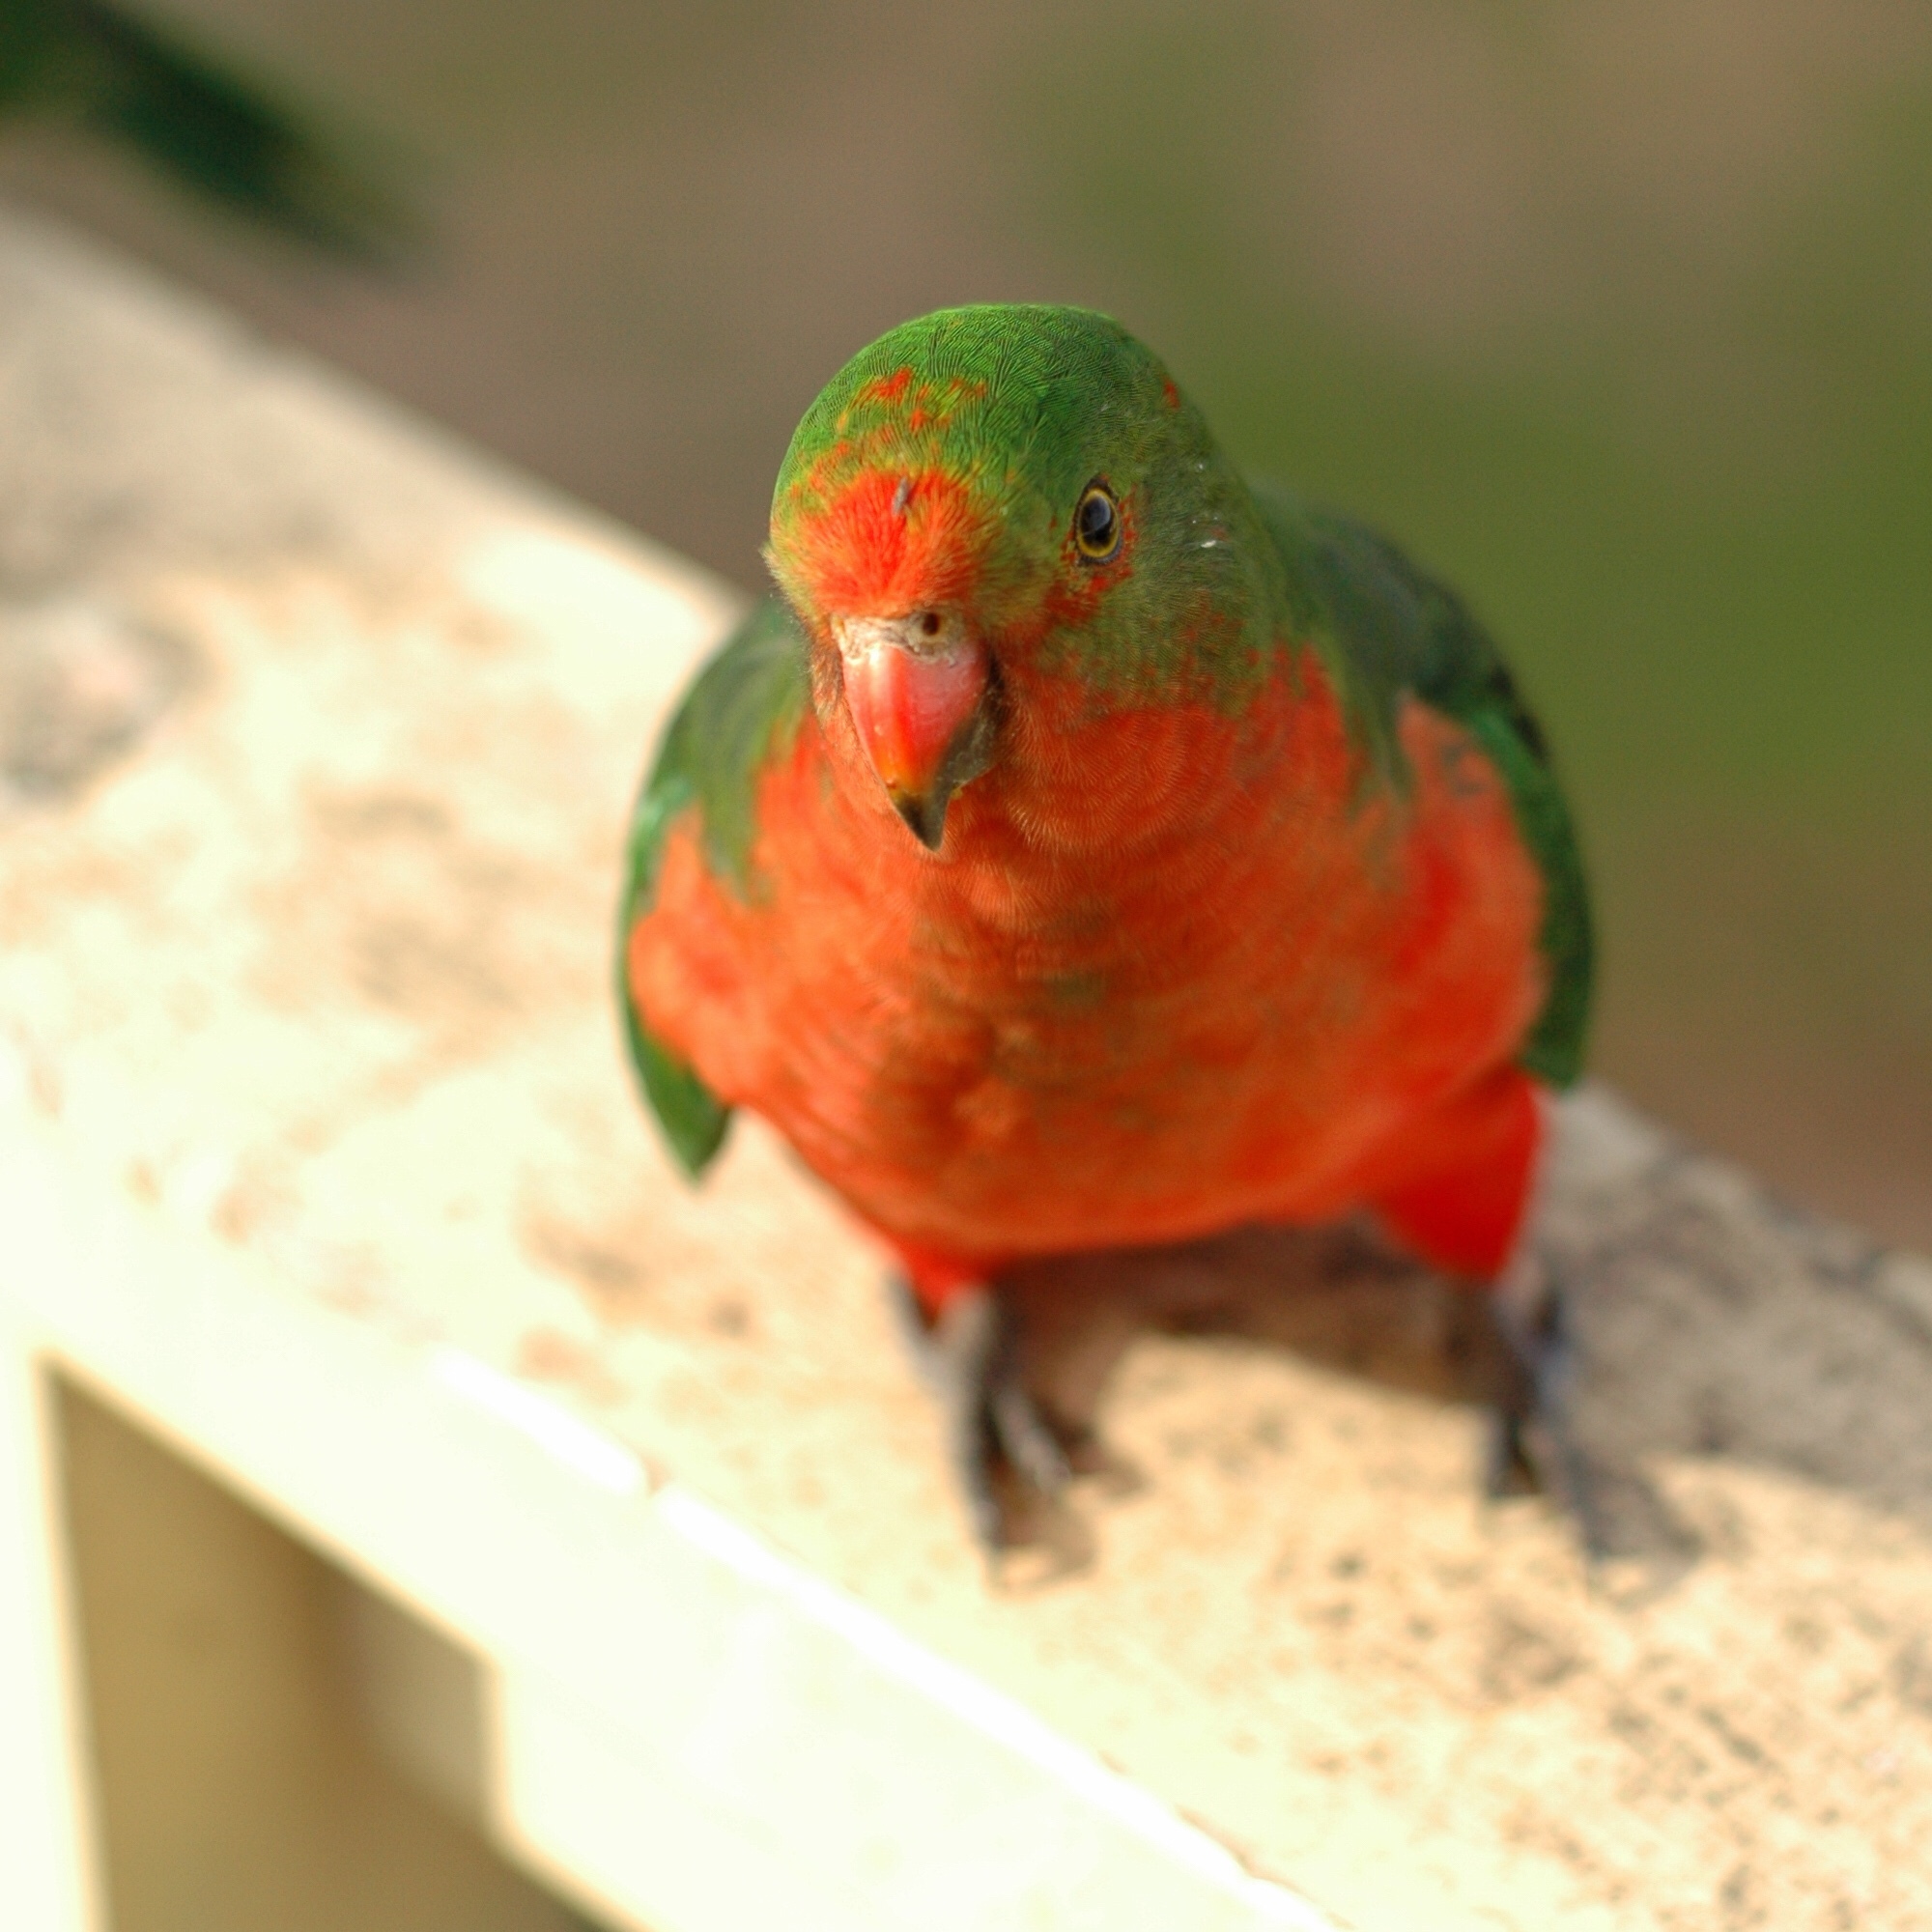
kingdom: Animalia
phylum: Chordata
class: Aves
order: Psittaciformes
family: Psittacidae
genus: Alisterus
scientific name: Alisterus scapularis
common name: Australian king parrot
